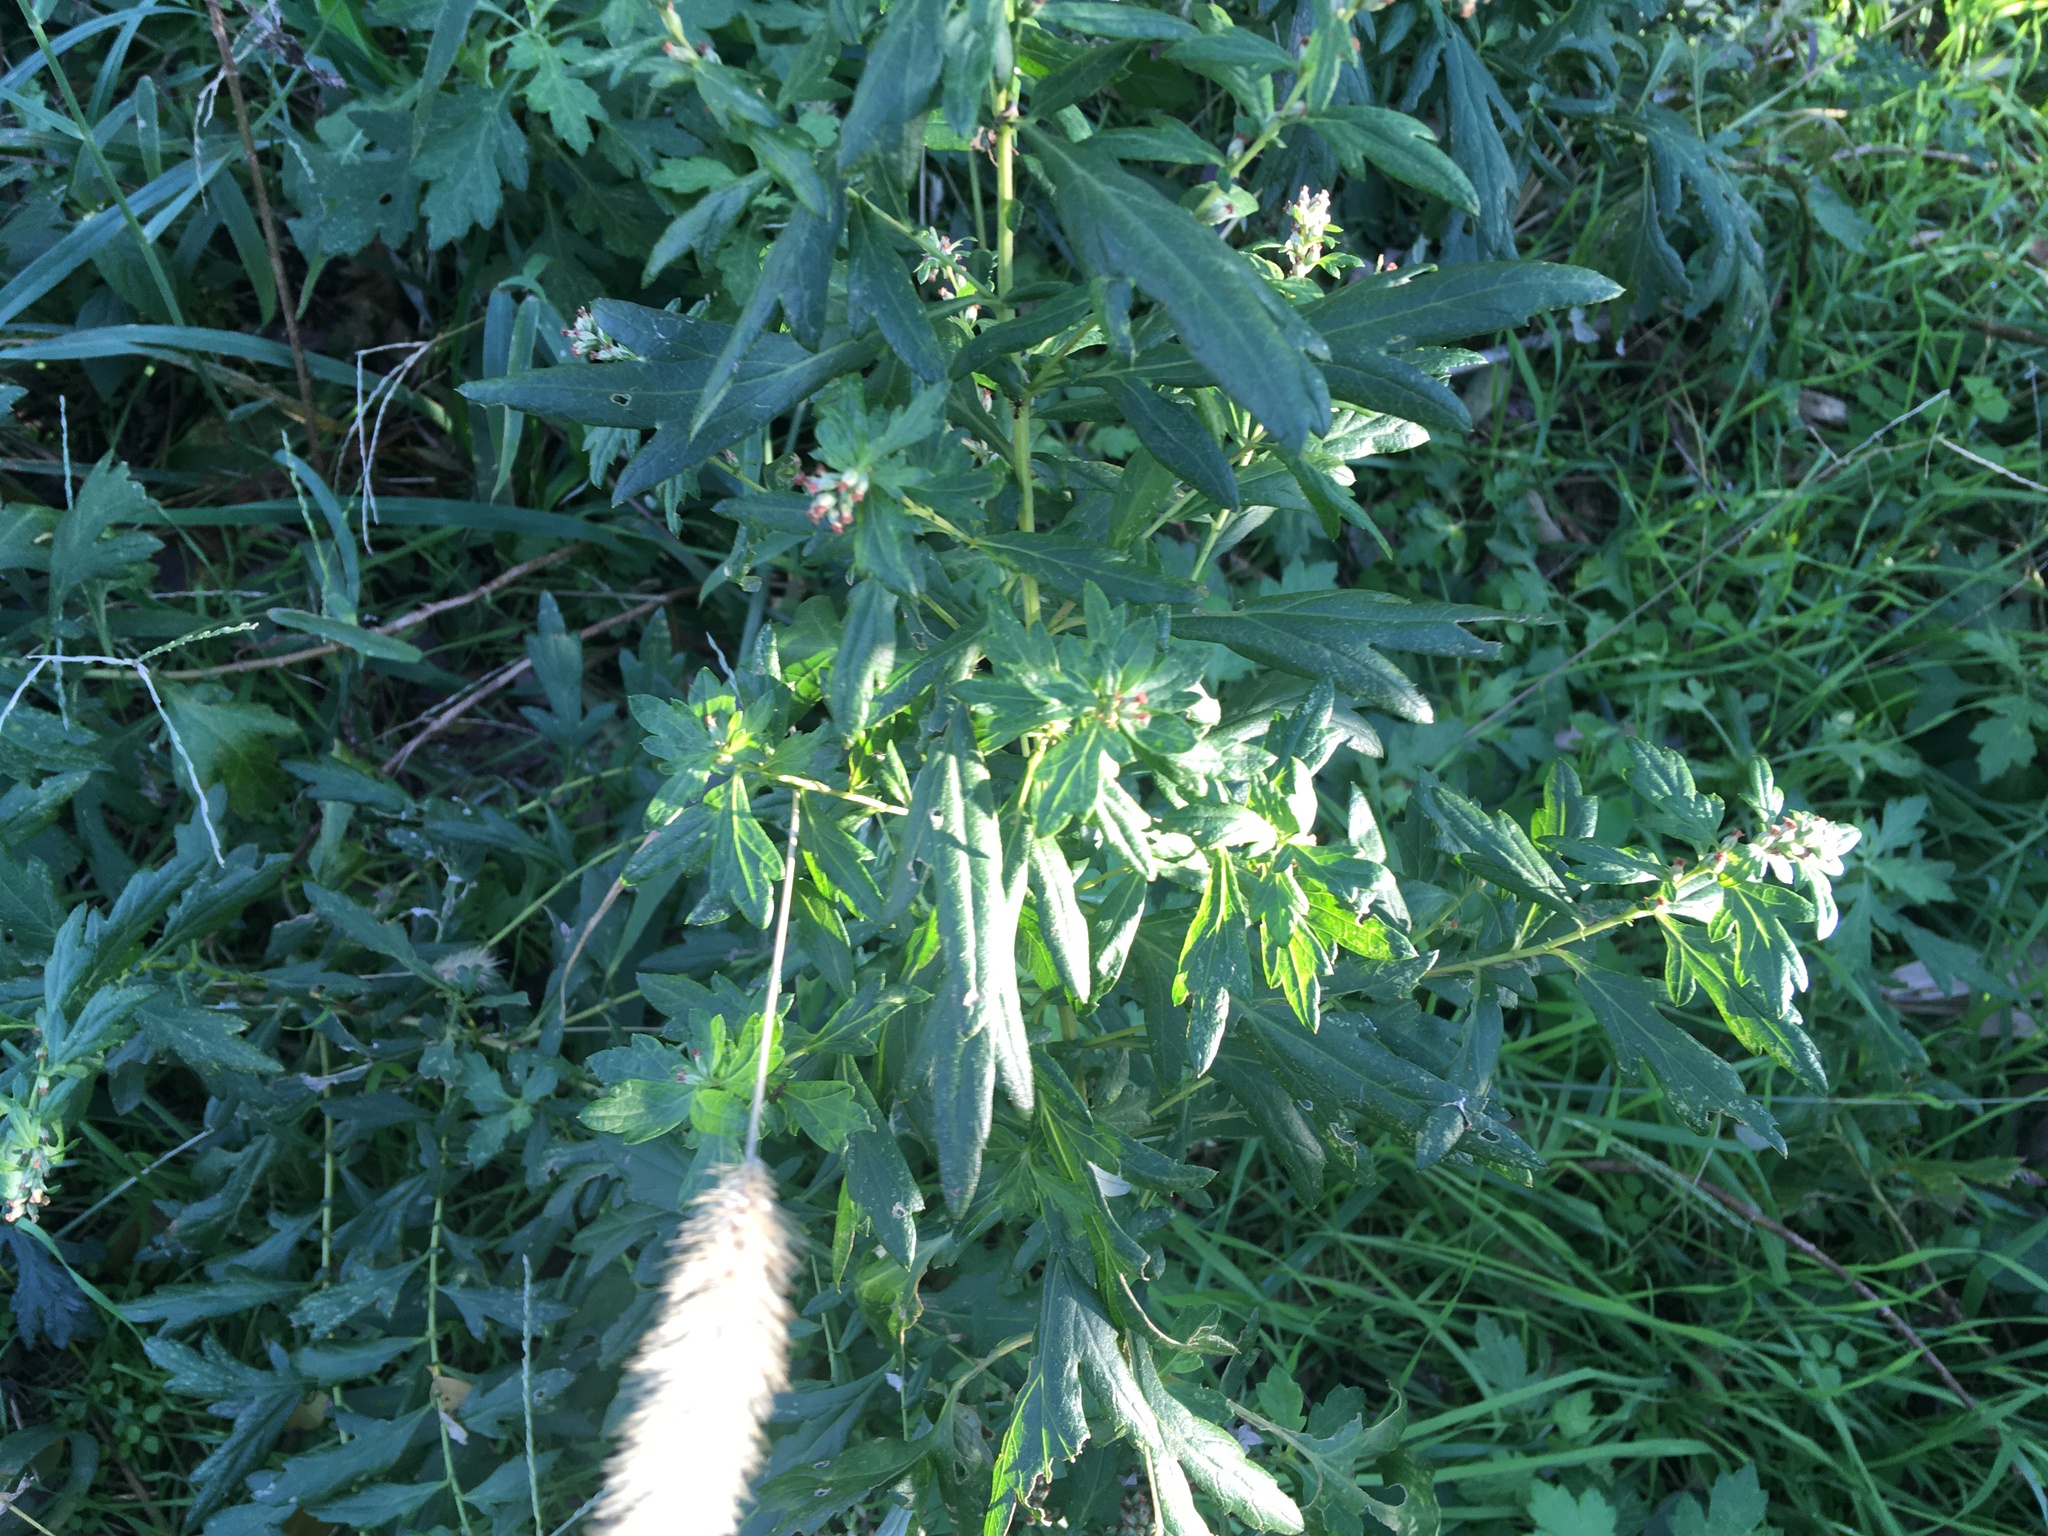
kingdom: Plantae
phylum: Tracheophyta
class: Magnoliopsida
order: Asterales
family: Asteraceae
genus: Artemisia
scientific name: Artemisia vulgaris
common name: Mugwort
